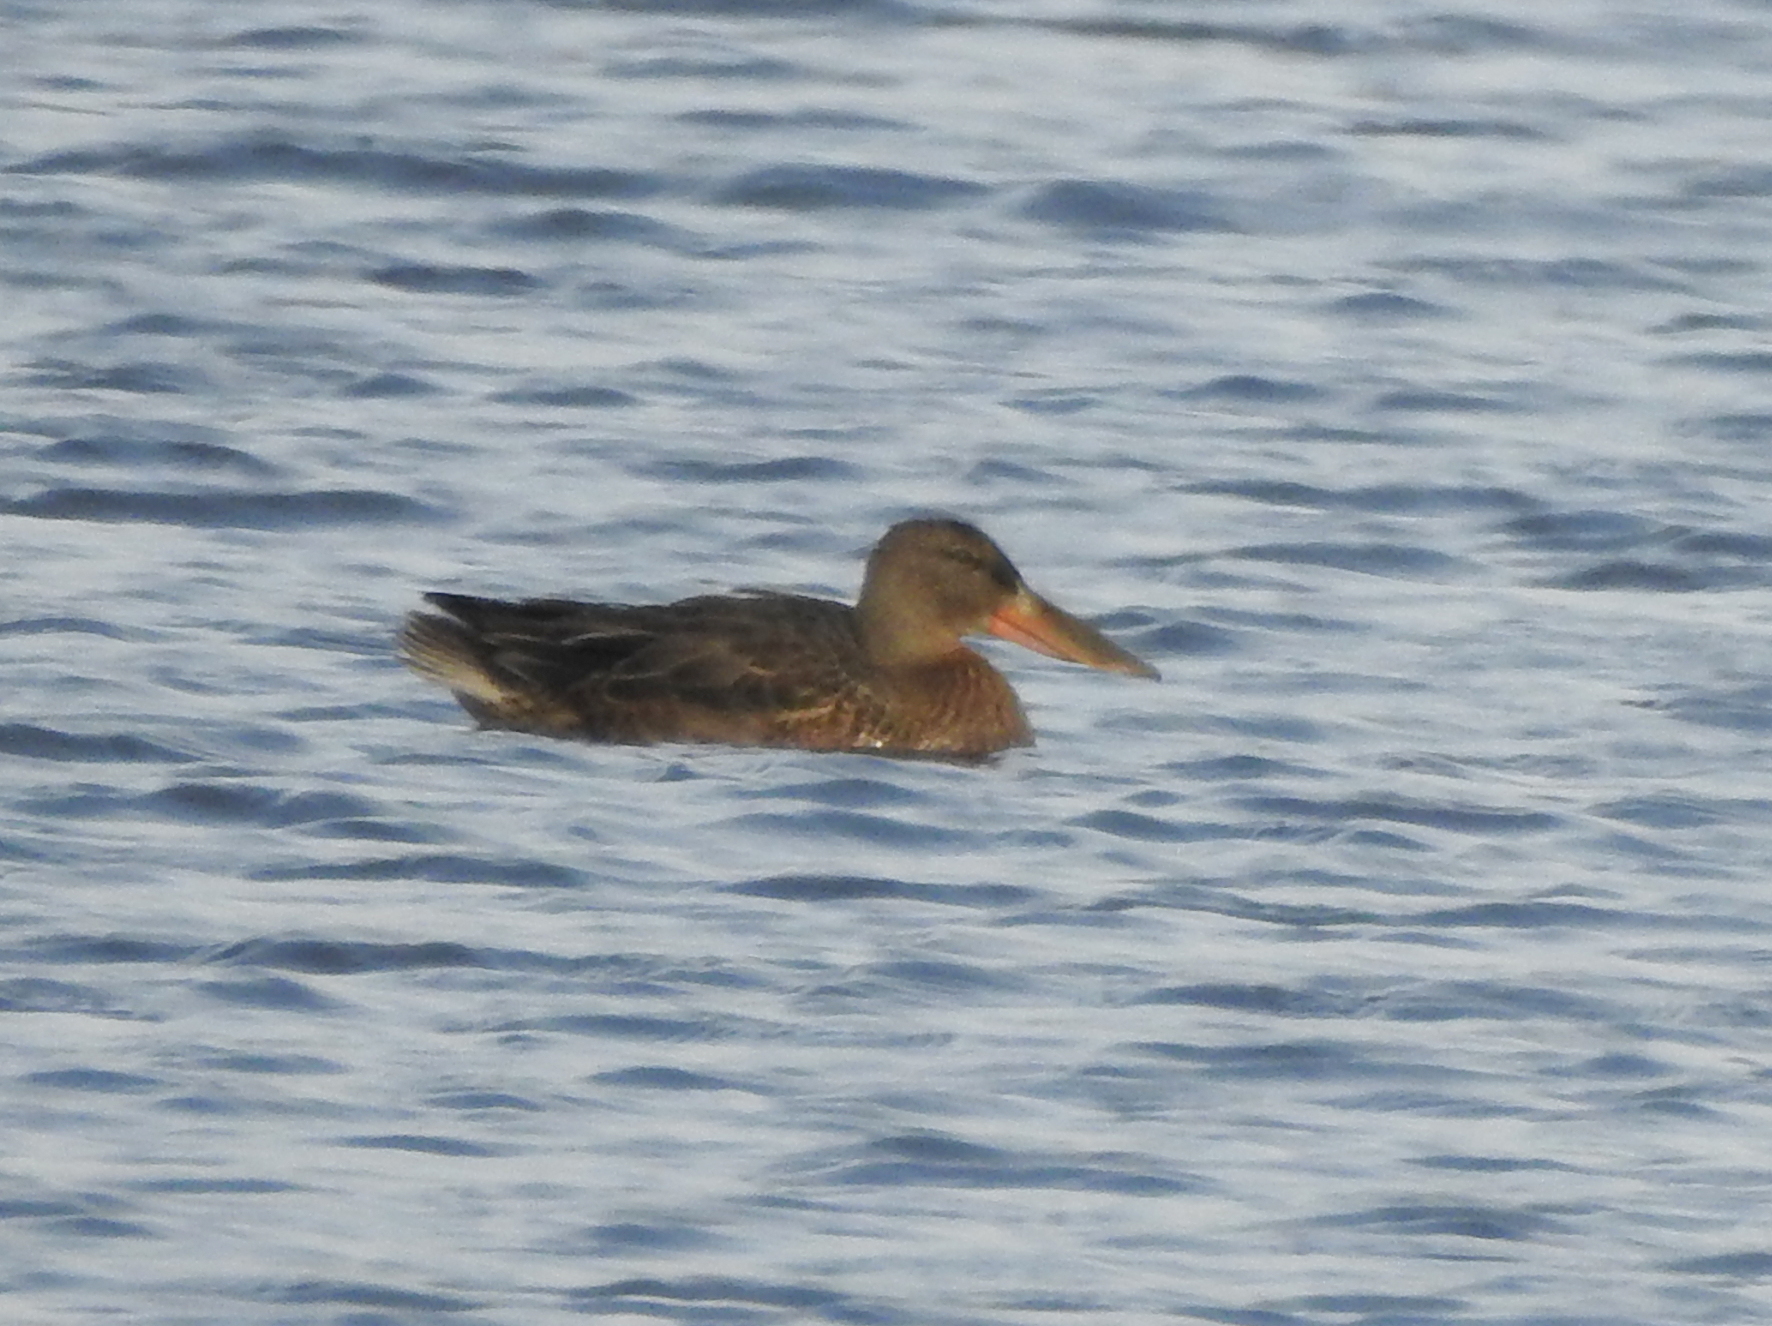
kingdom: Animalia
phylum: Chordata
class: Aves
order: Anseriformes
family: Anatidae
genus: Spatula
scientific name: Spatula clypeata
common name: Northern shoveler
